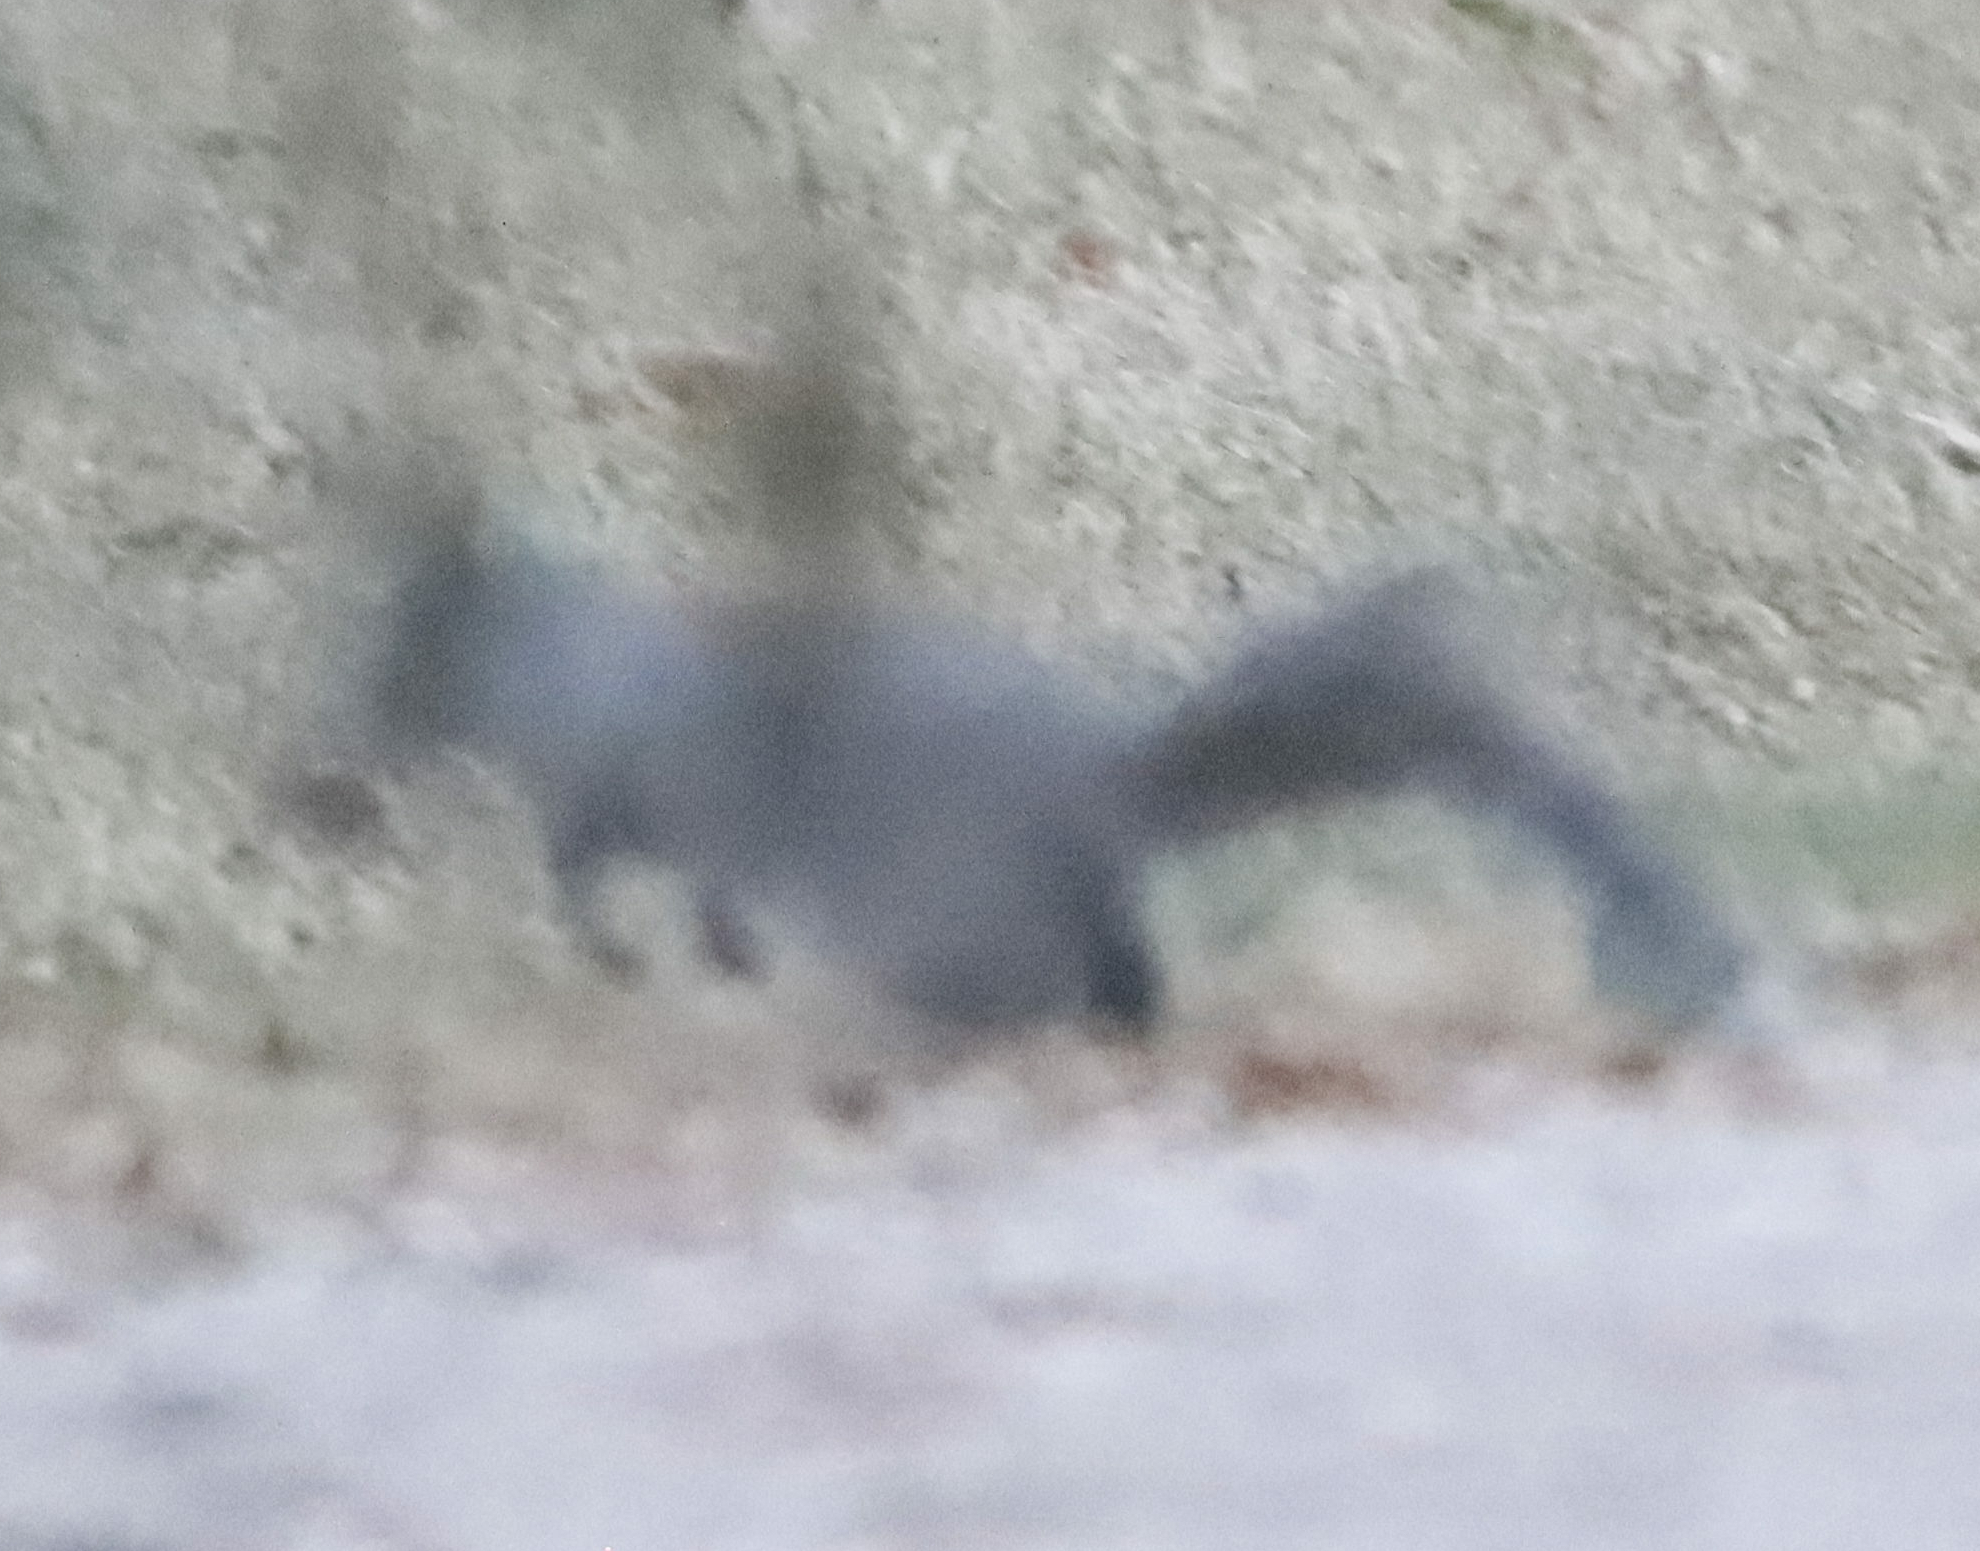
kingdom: Animalia
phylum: Chordata
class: Mammalia
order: Rodentia
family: Sciuridae
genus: Sciurus
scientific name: Sciurus carolinensis
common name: Eastern gray squirrel
